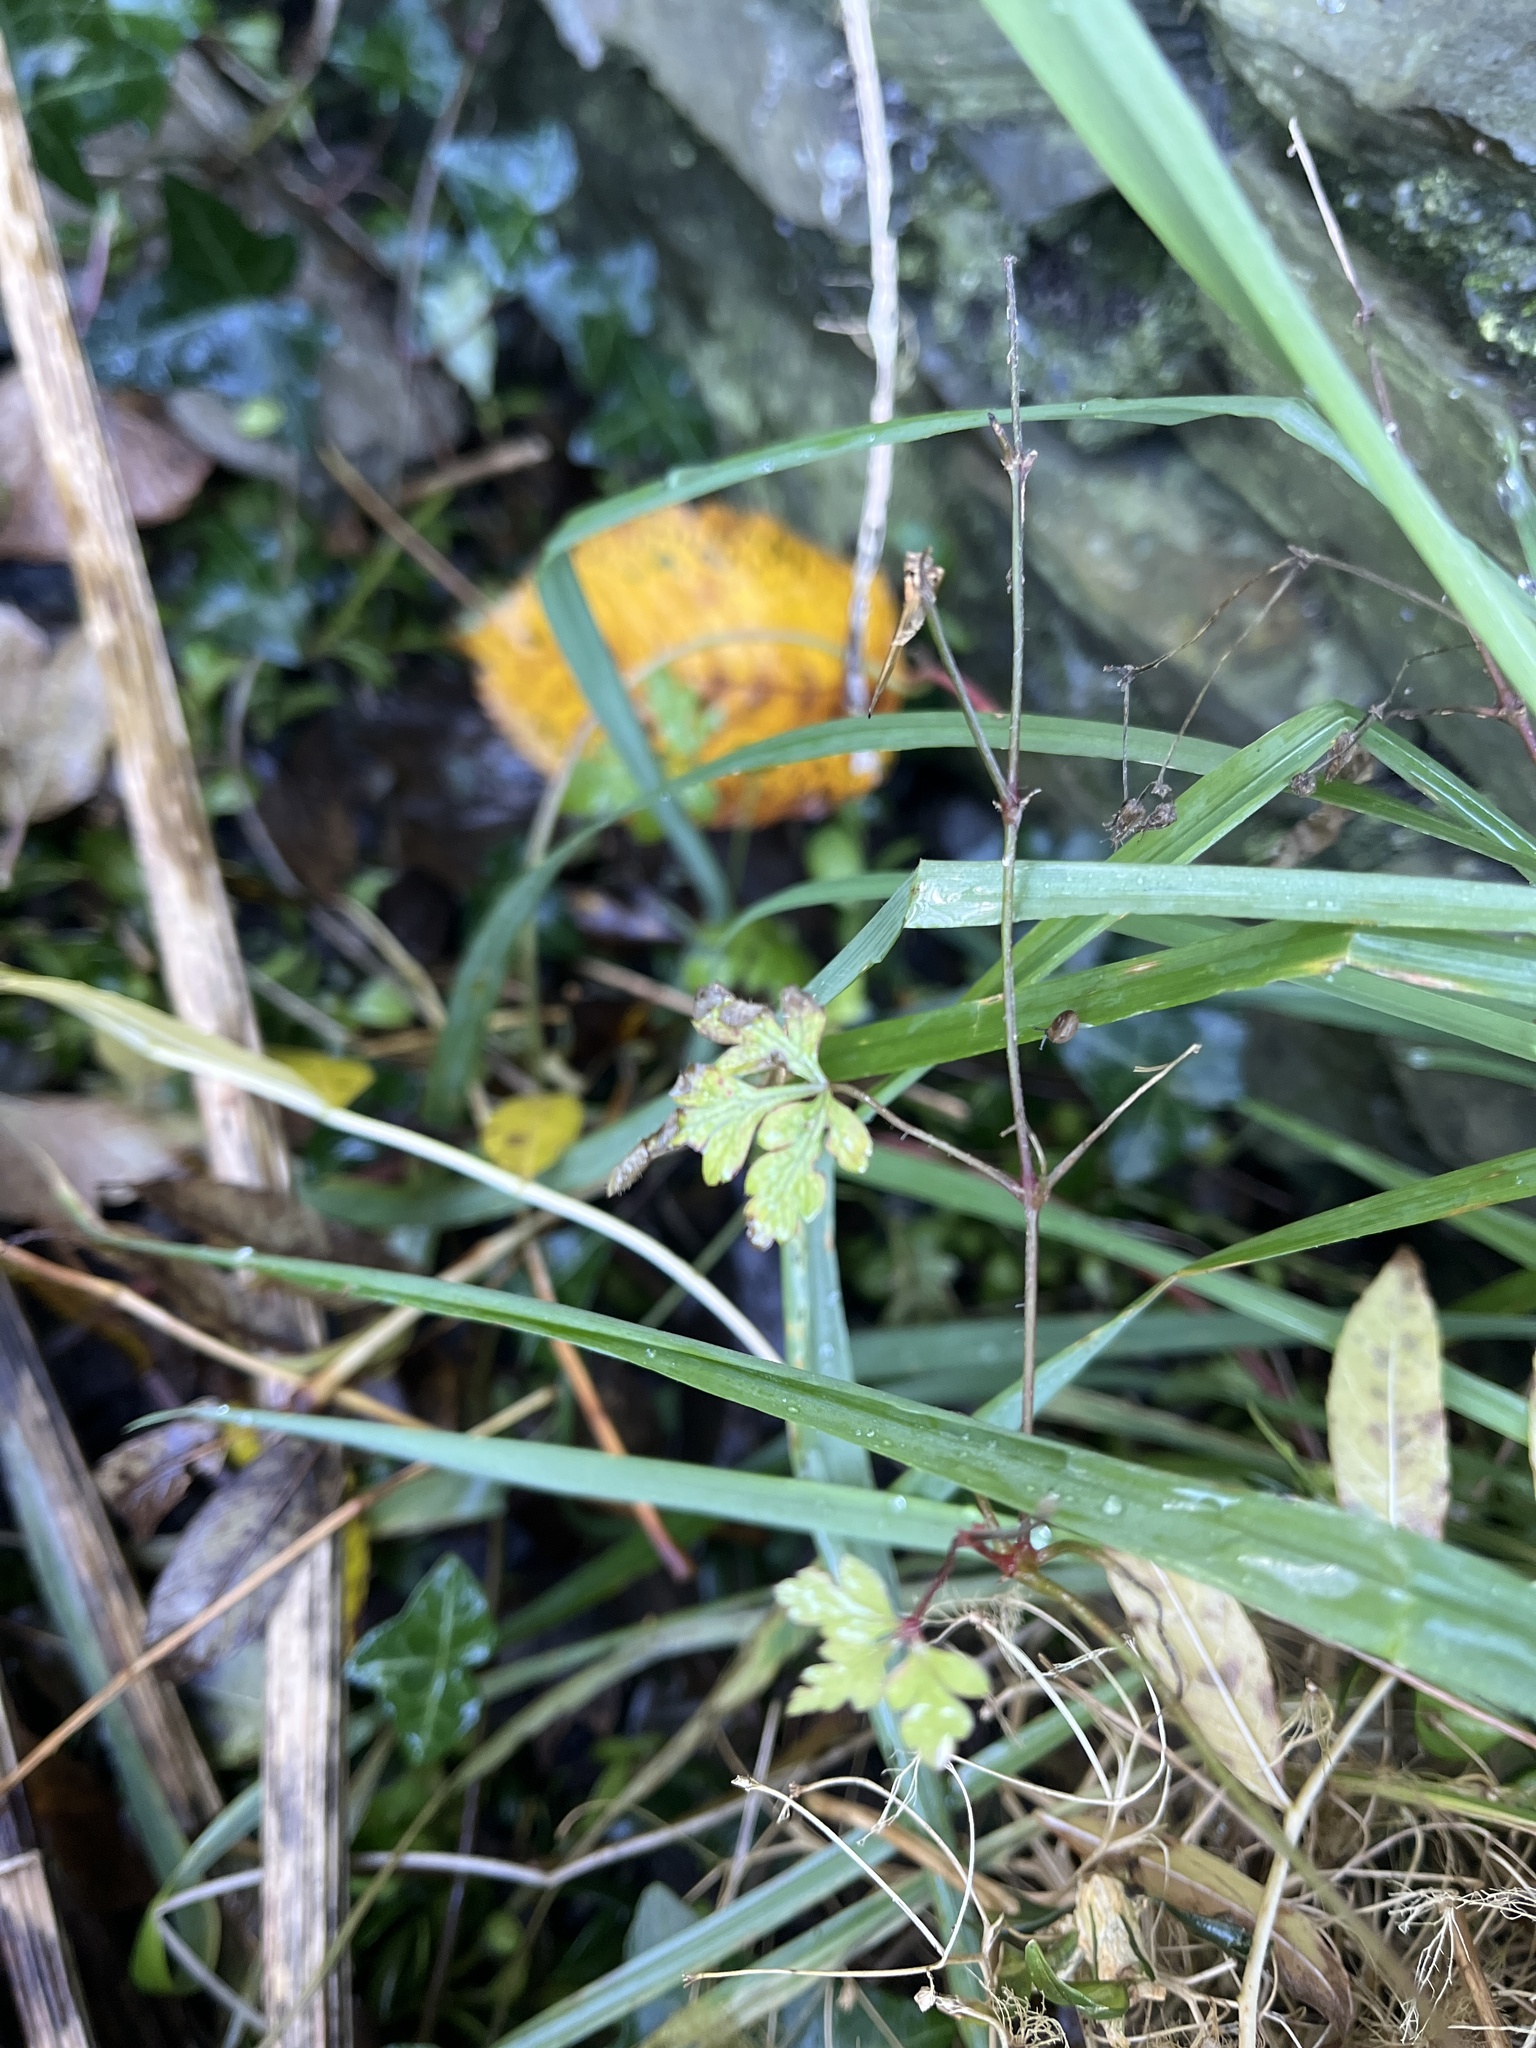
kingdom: Plantae
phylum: Tracheophyta
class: Magnoliopsida
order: Geraniales
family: Geraniaceae
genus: Geranium
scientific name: Geranium robertianum
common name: Herb-robert
